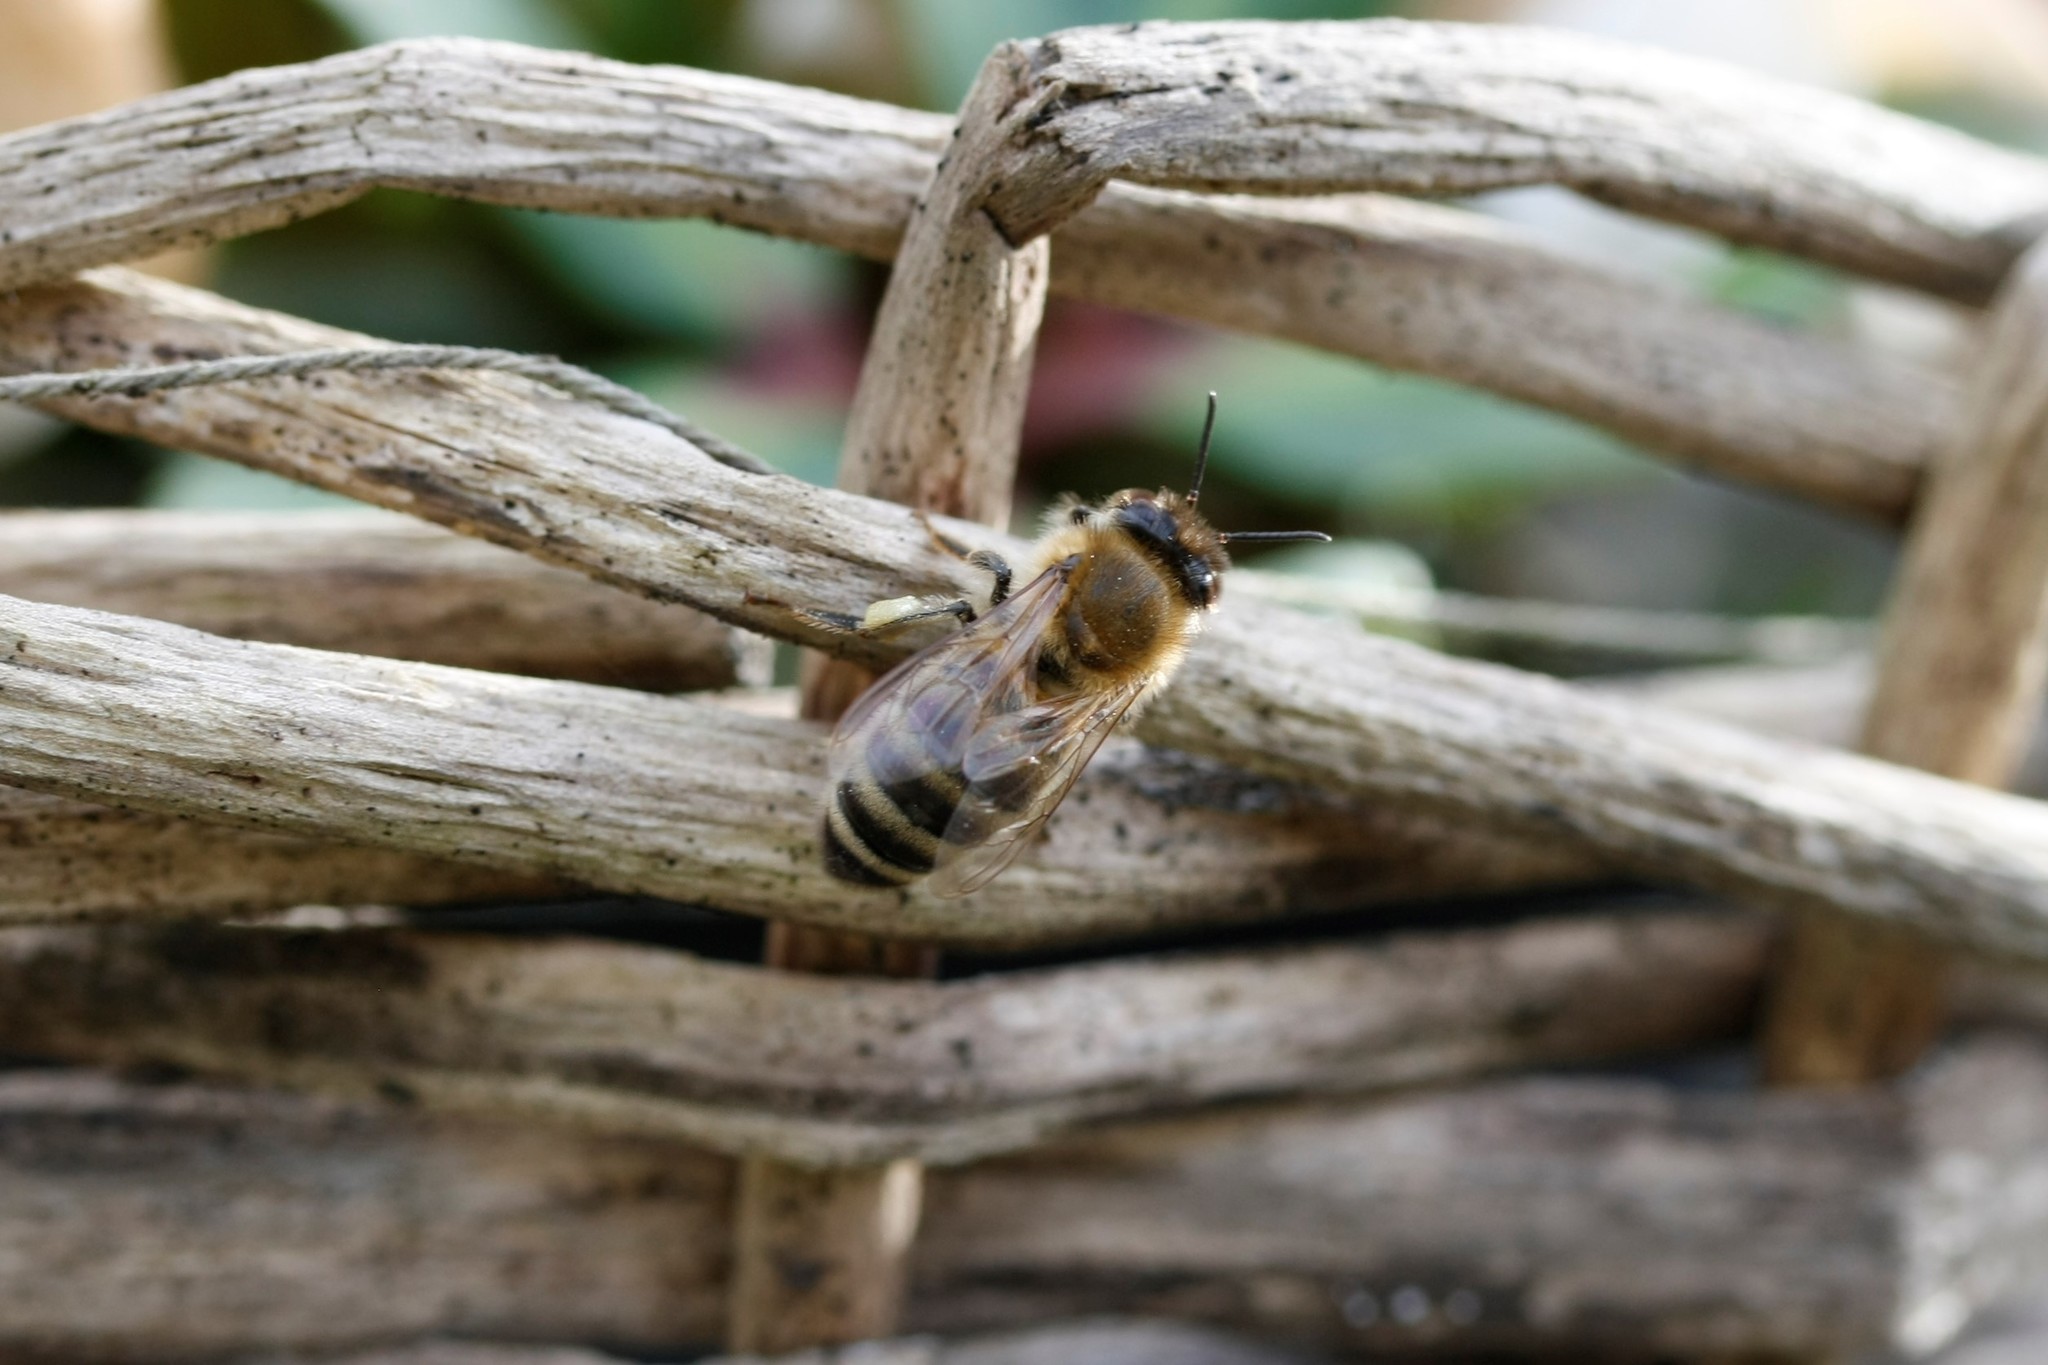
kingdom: Animalia
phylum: Arthropoda
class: Insecta
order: Hymenoptera
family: Apidae
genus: Apis
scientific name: Apis mellifera
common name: Honey bee
